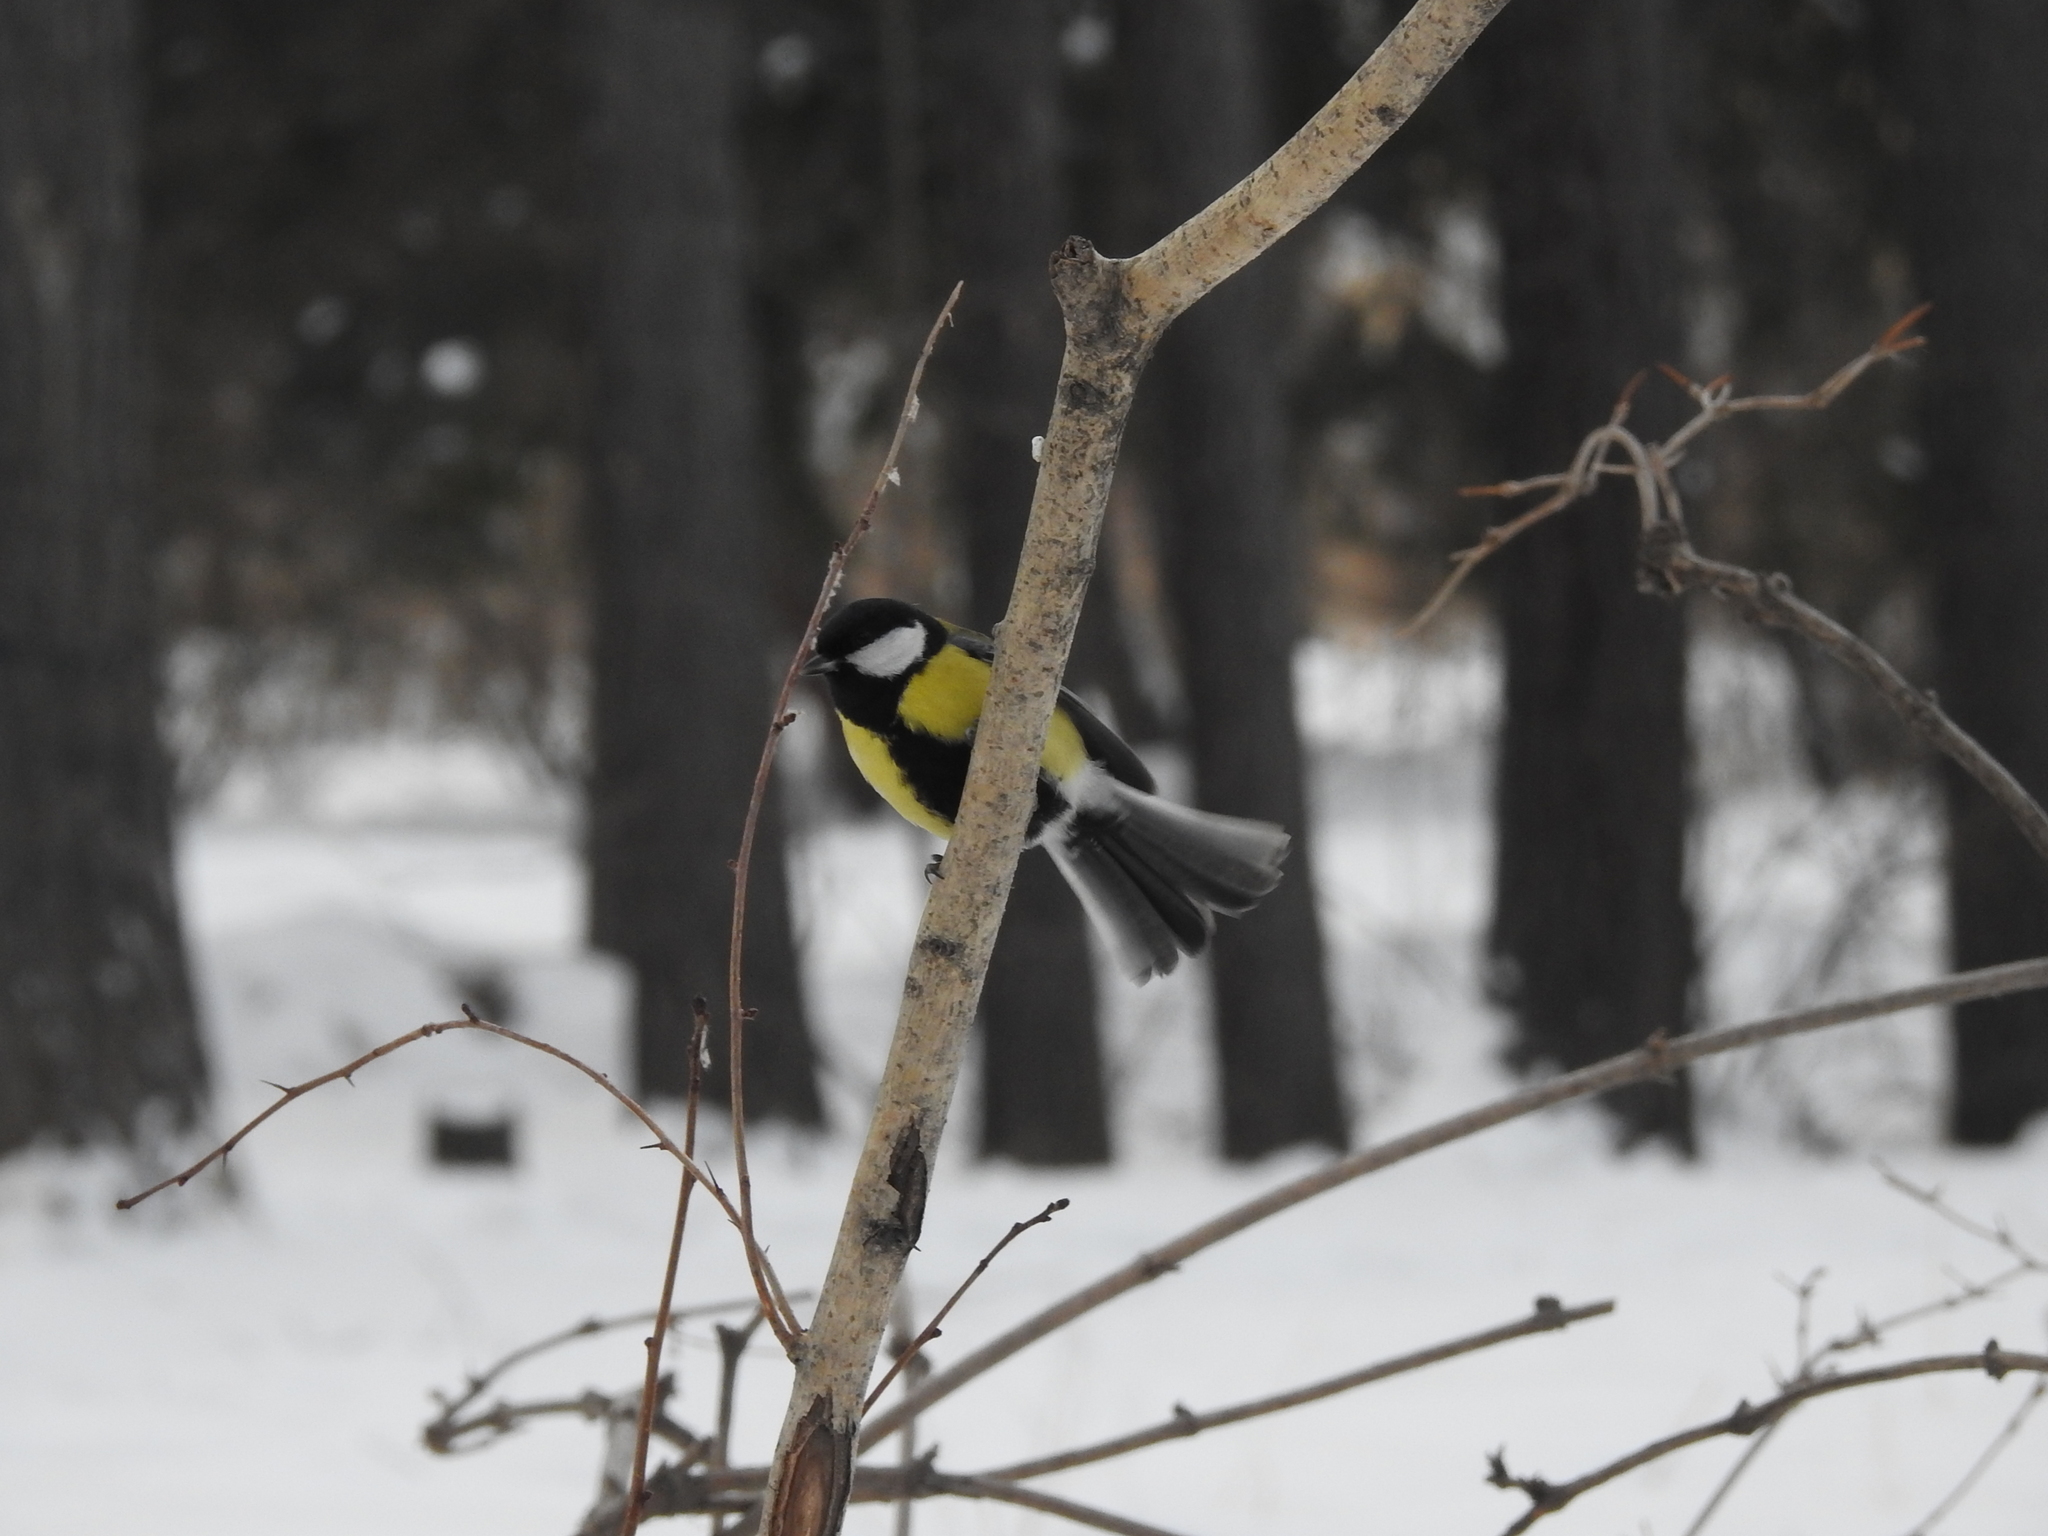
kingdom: Animalia
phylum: Chordata
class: Aves
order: Passeriformes
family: Paridae
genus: Parus
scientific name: Parus major
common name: Great tit
